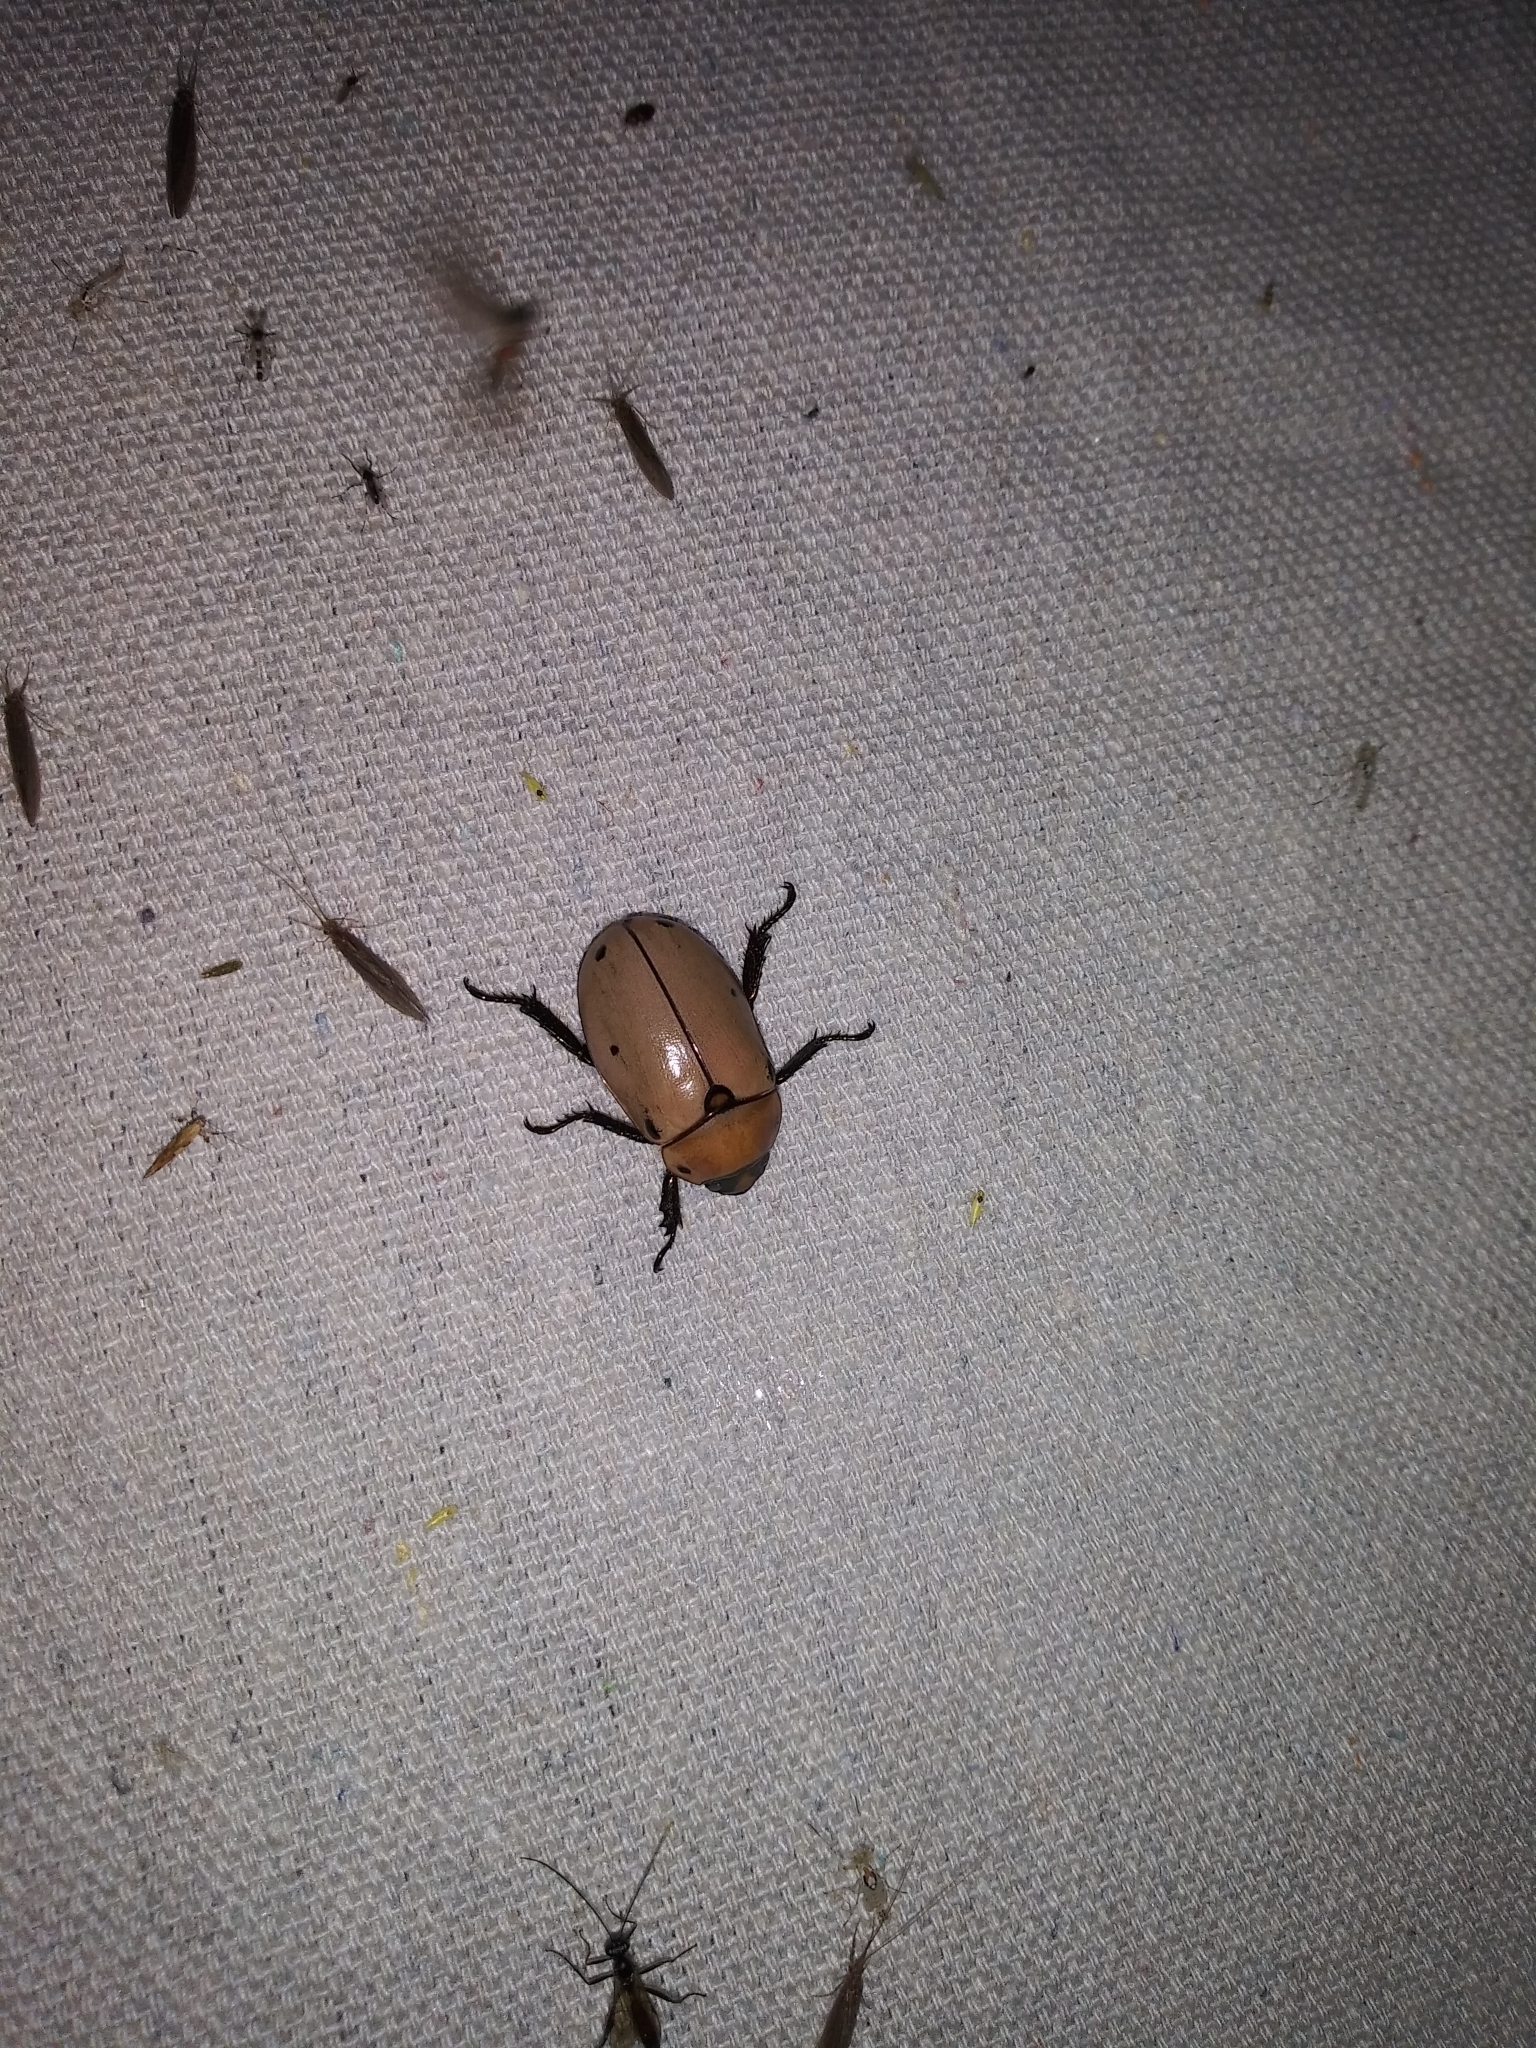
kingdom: Animalia
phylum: Arthropoda
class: Insecta
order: Coleoptera
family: Scarabaeidae
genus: Pelidnota
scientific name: Pelidnota punctata
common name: Grapevine beetle
